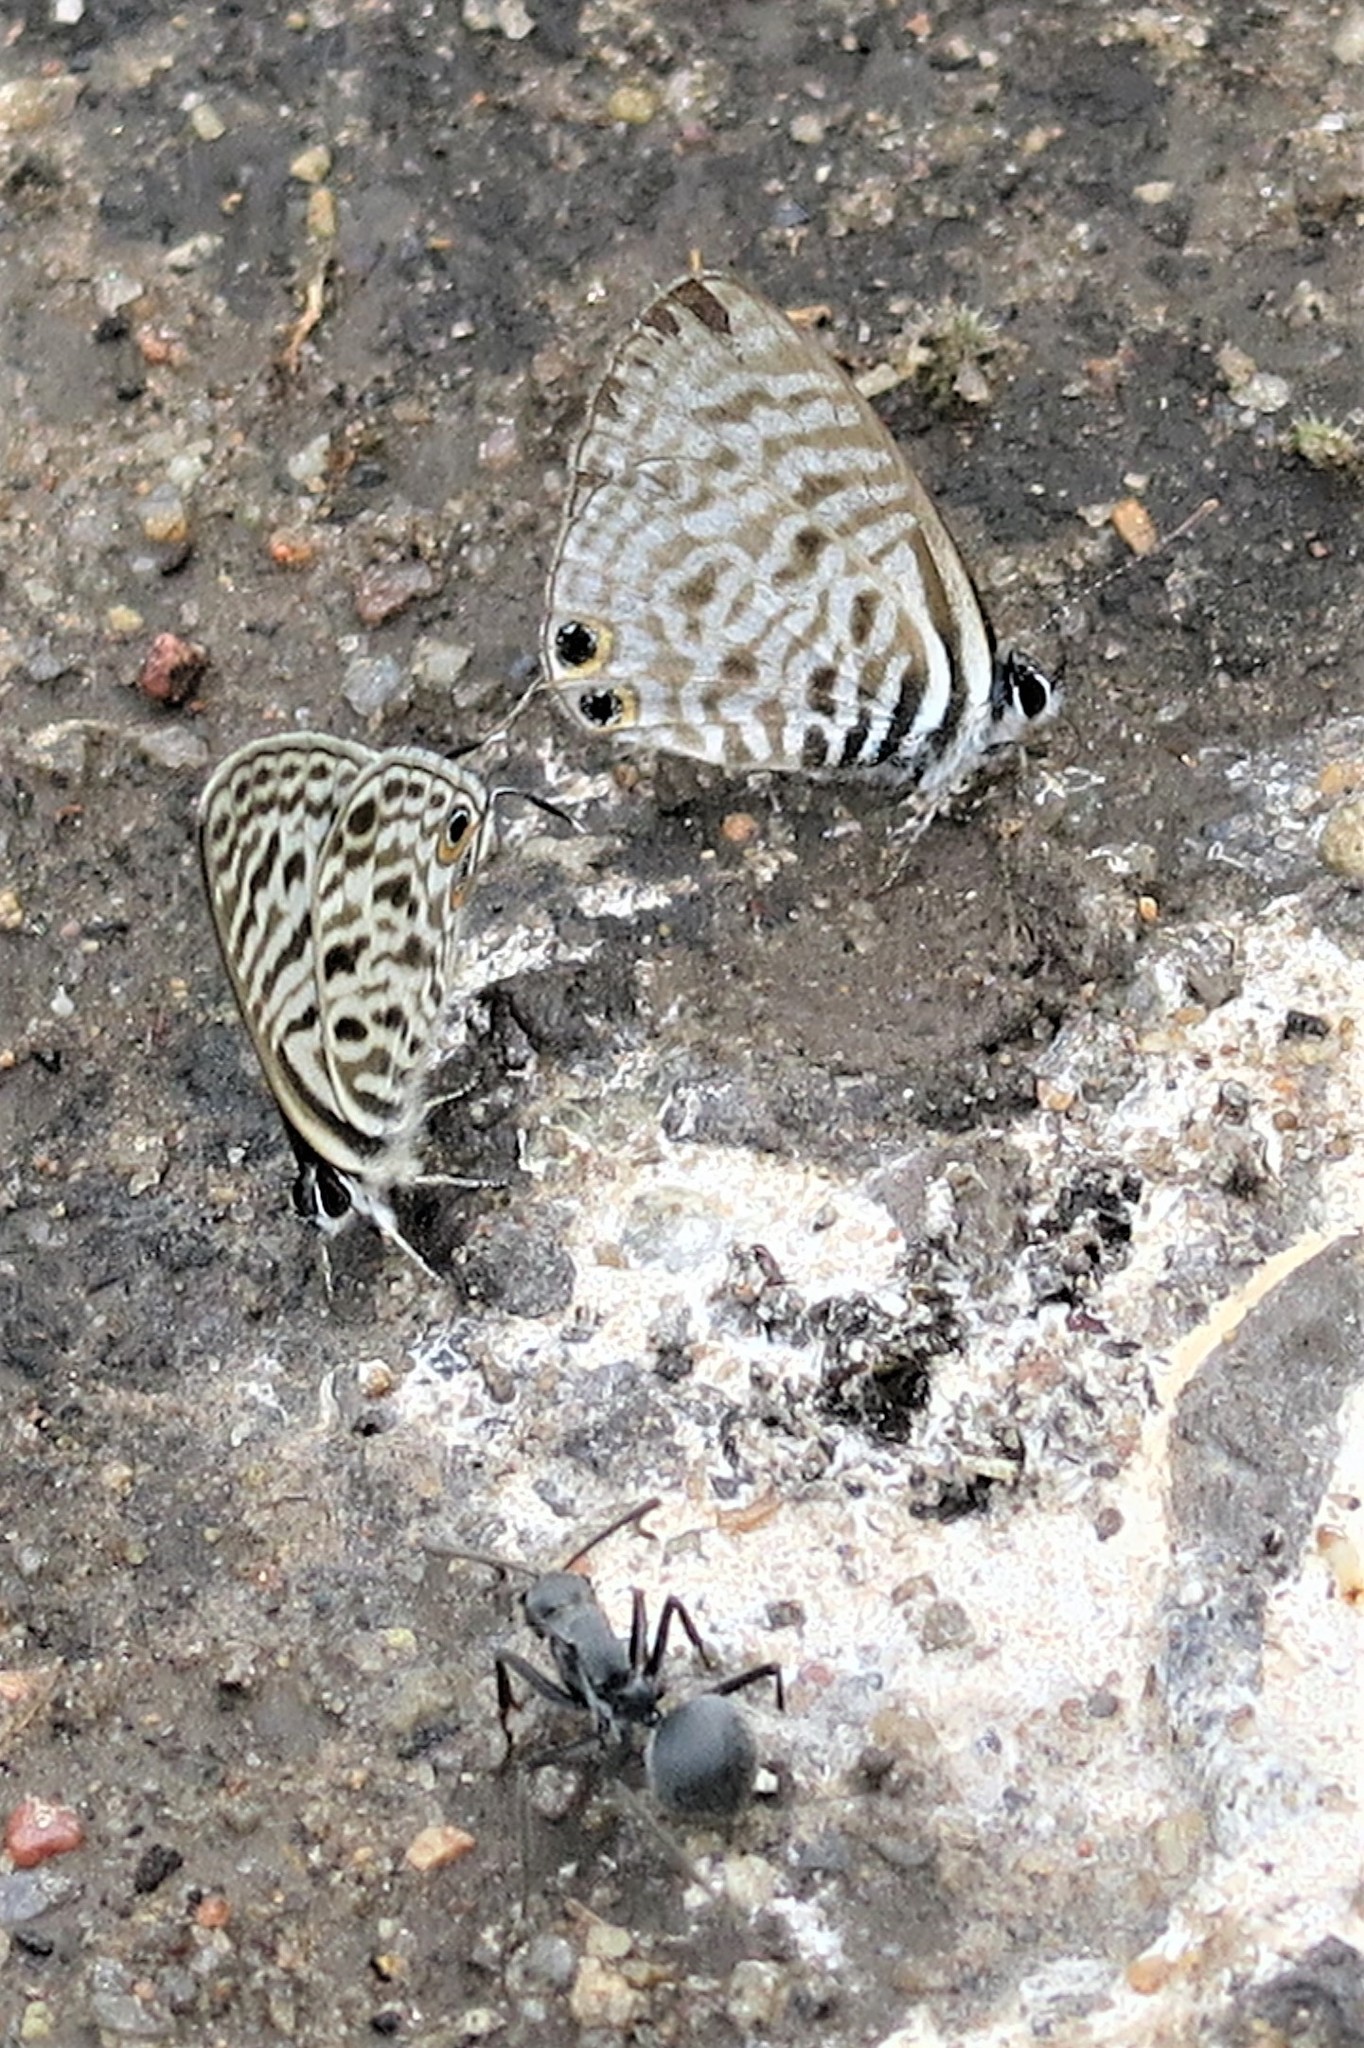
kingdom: Animalia
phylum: Arthropoda
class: Insecta
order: Lepidoptera
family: Lycaenidae
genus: Leptotes
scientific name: Leptotes
